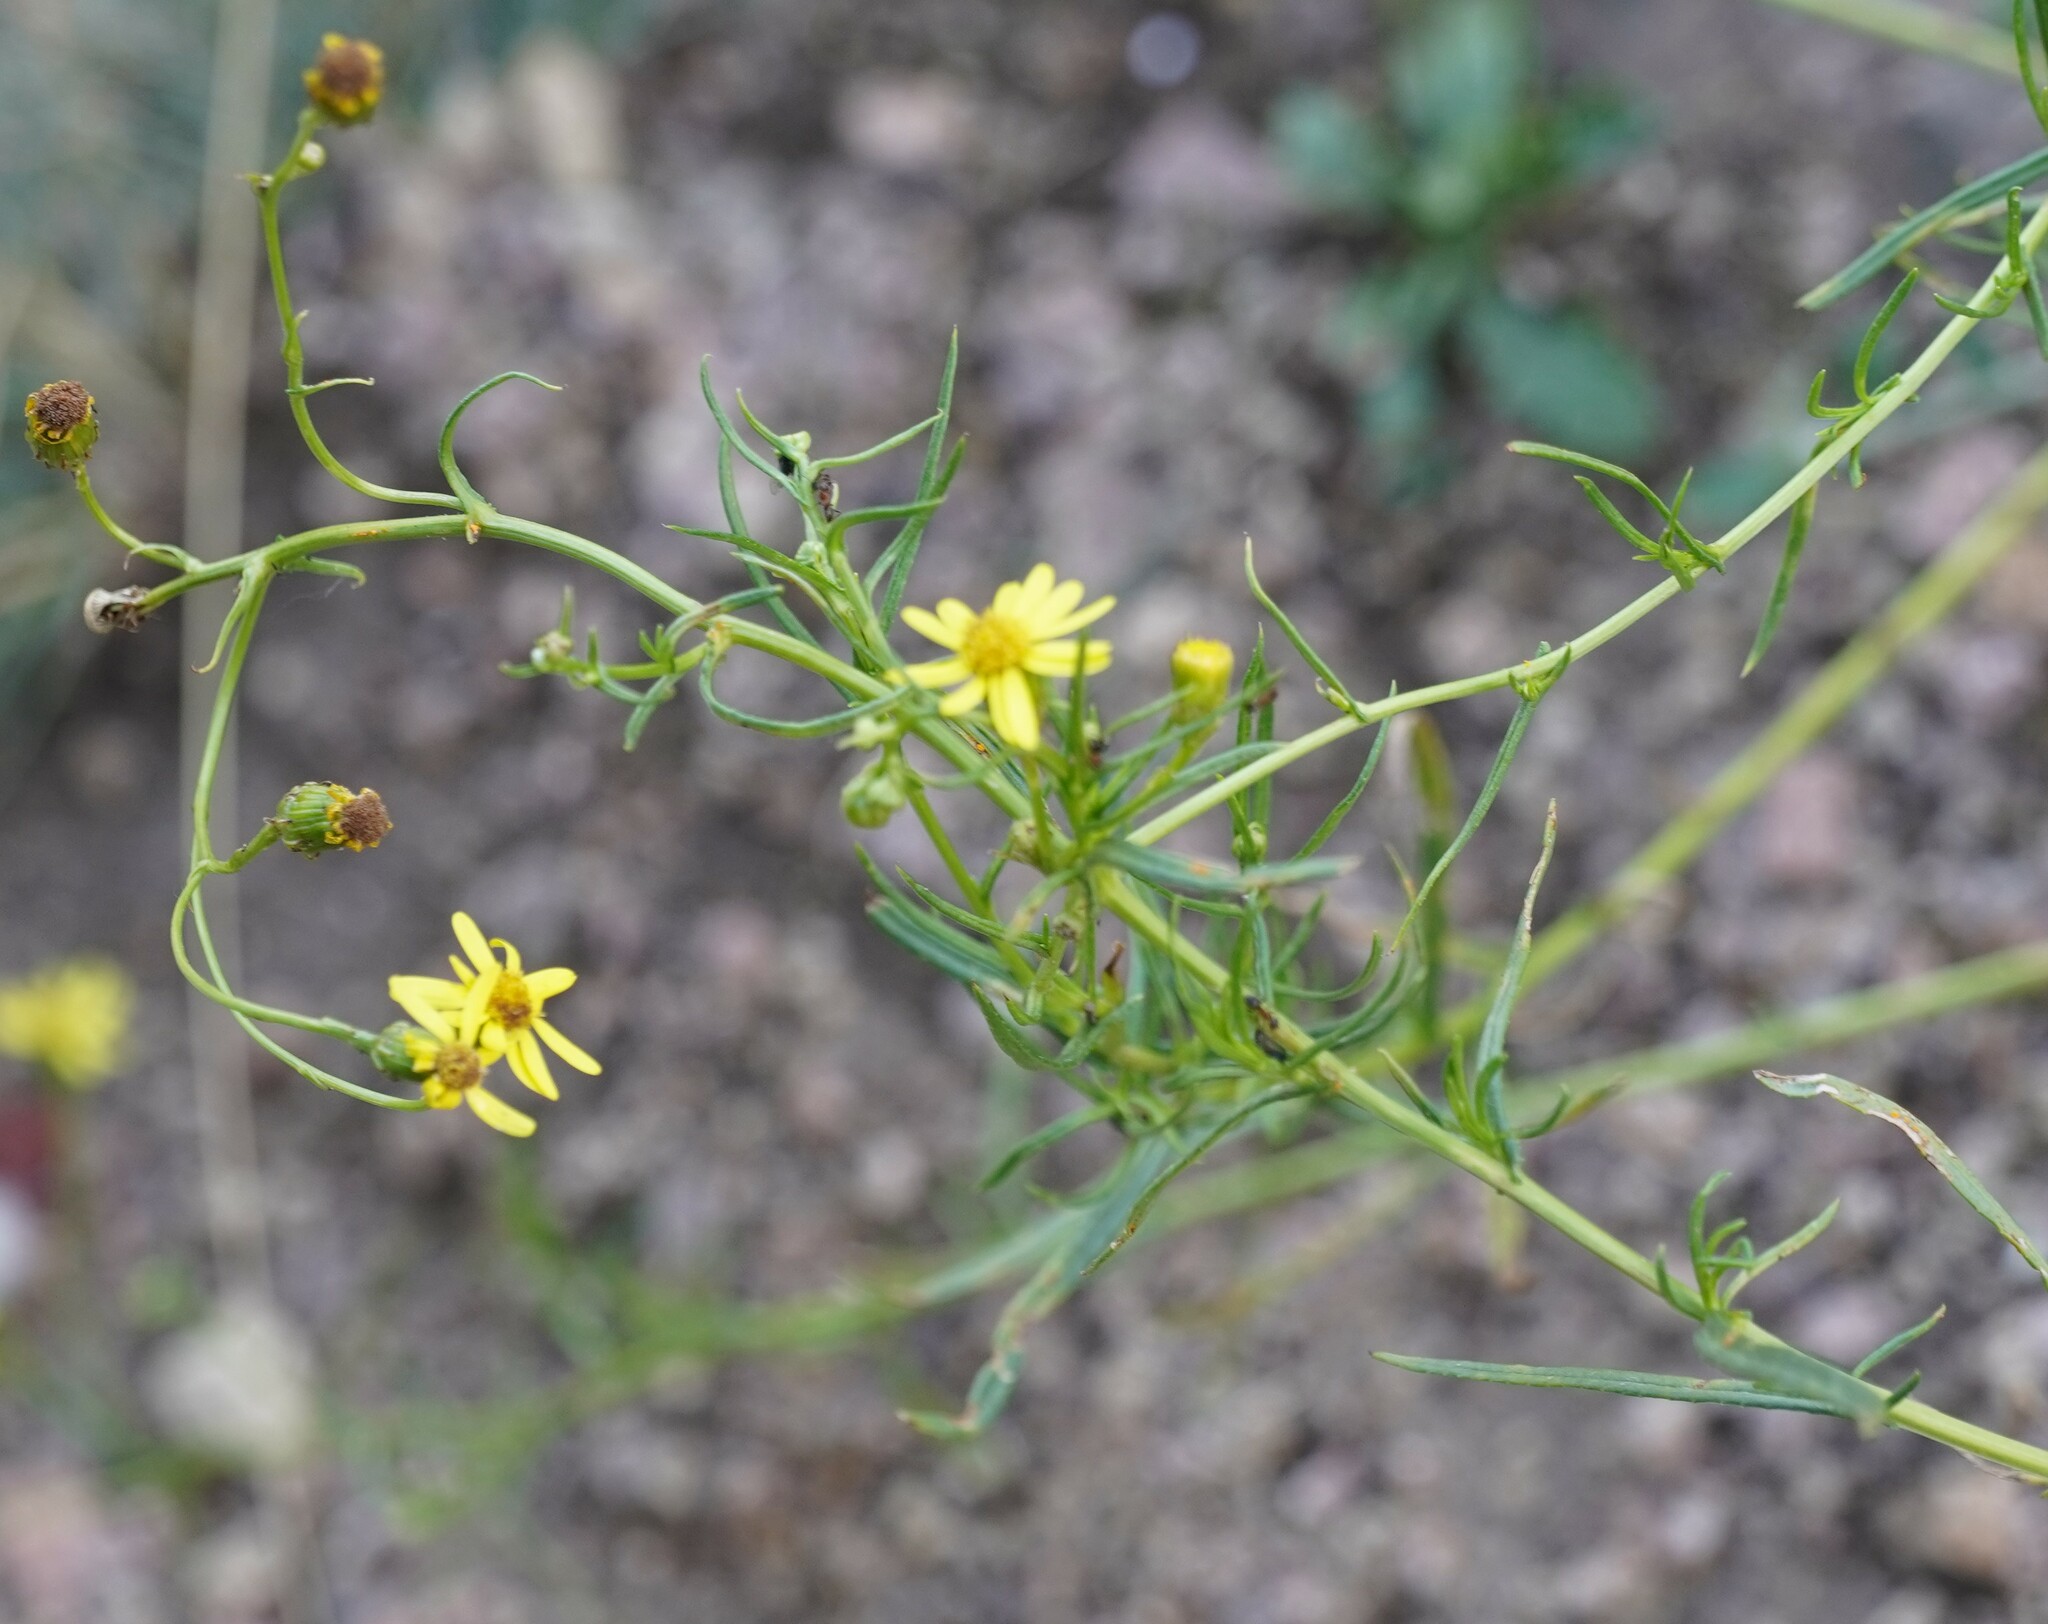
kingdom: Plantae
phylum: Tracheophyta
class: Magnoliopsida
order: Asterales
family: Asteraceae
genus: Senecio
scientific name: Senecio inaequidens
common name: Narrow-leaved ragwort
